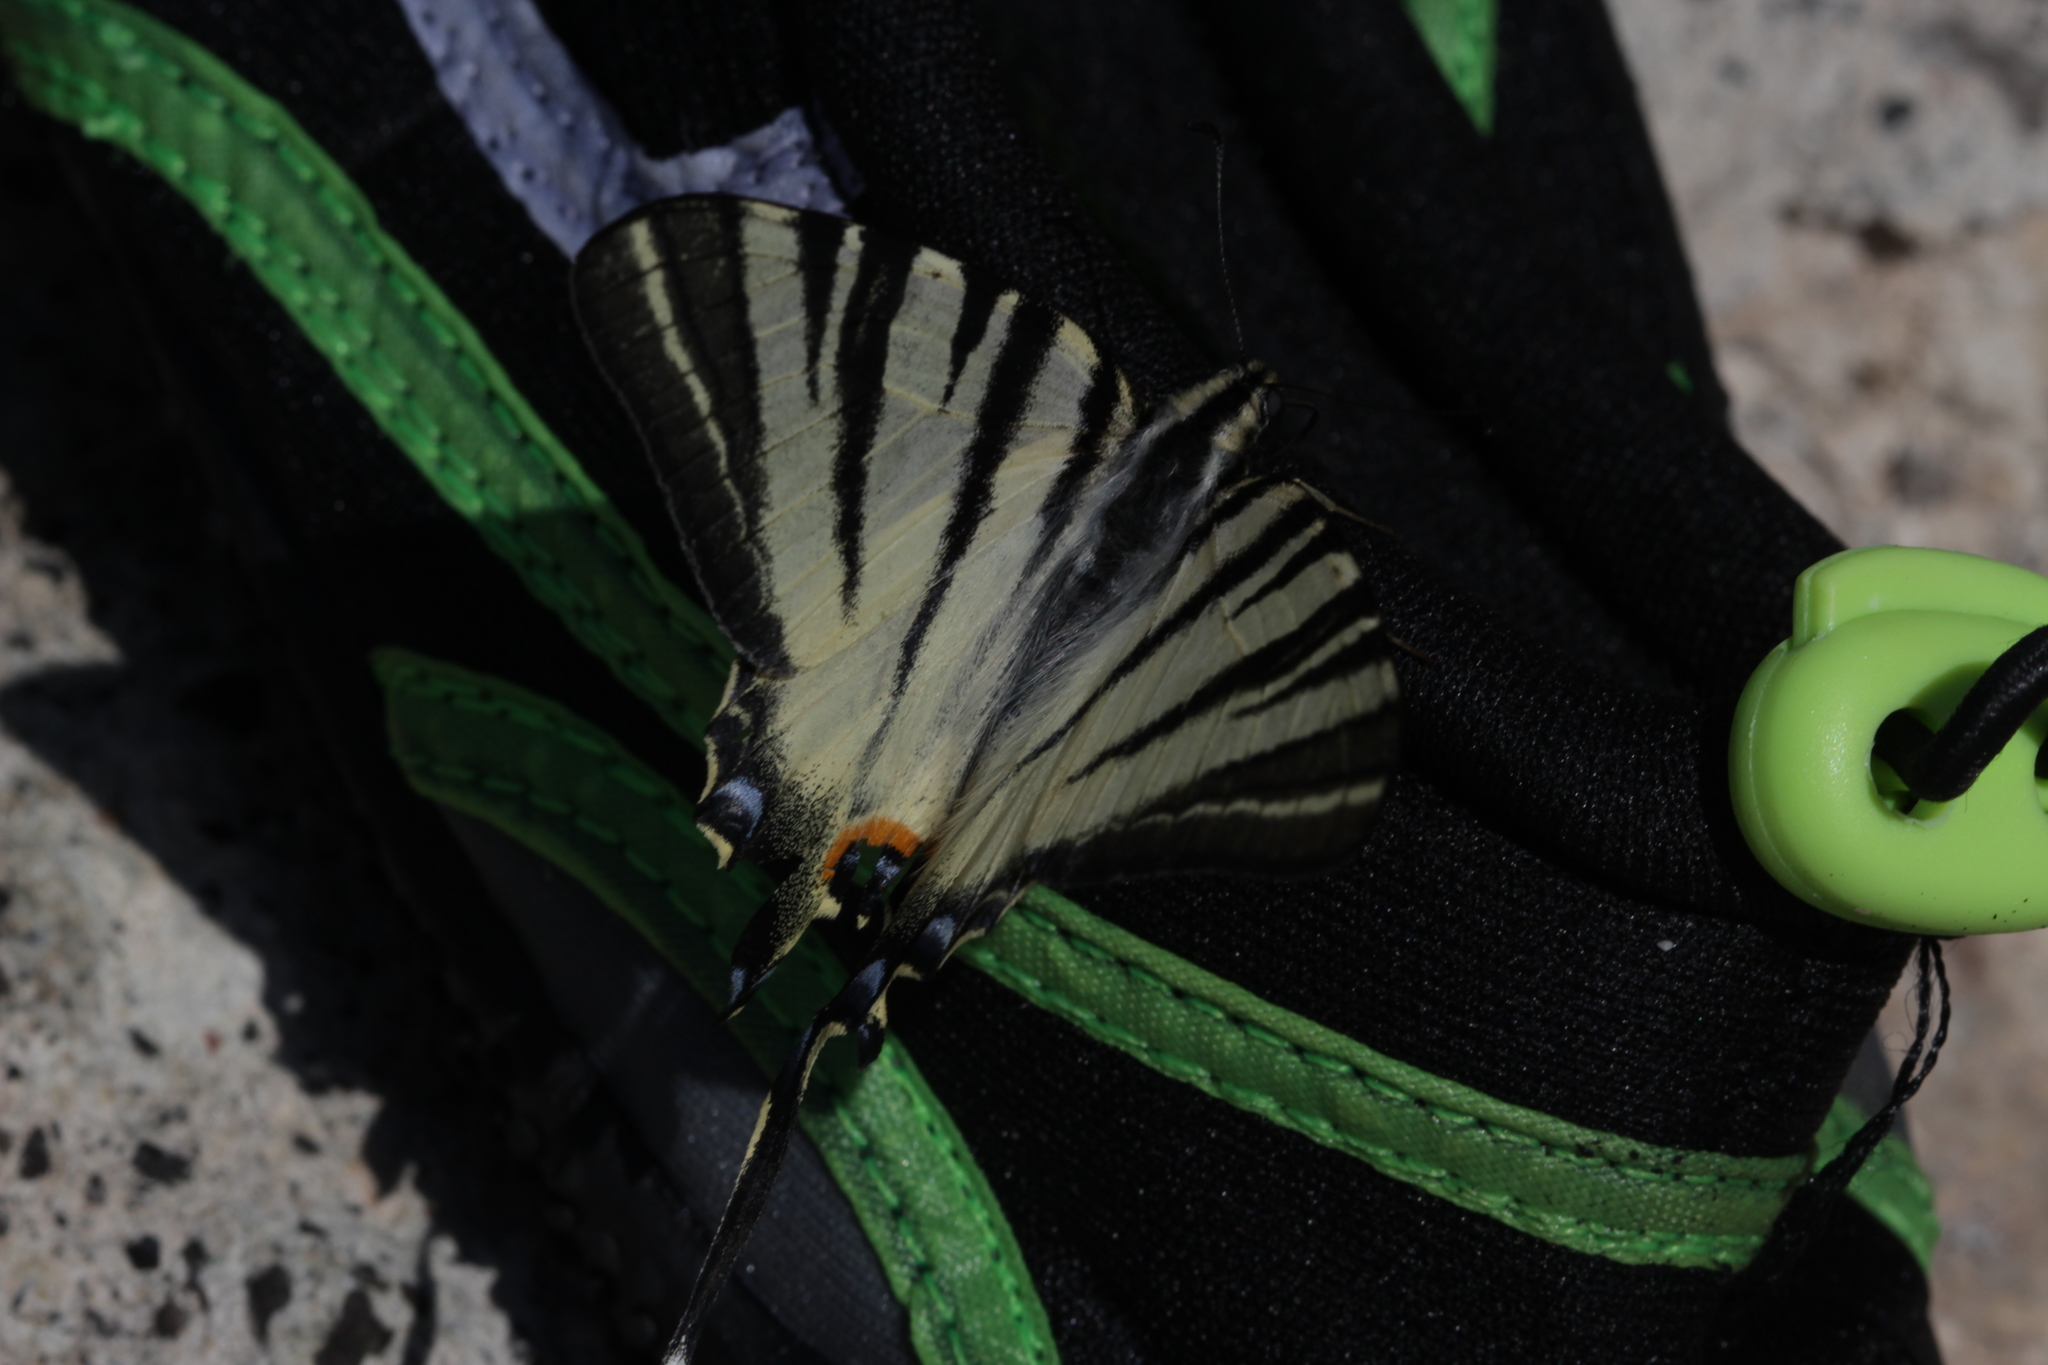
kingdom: Animalia
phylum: Arthropoda
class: Insecta
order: Lepidoptera
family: Papilionidae
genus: Iphiclides
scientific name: Iphiclides podalirius
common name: Scarce swallowtail
